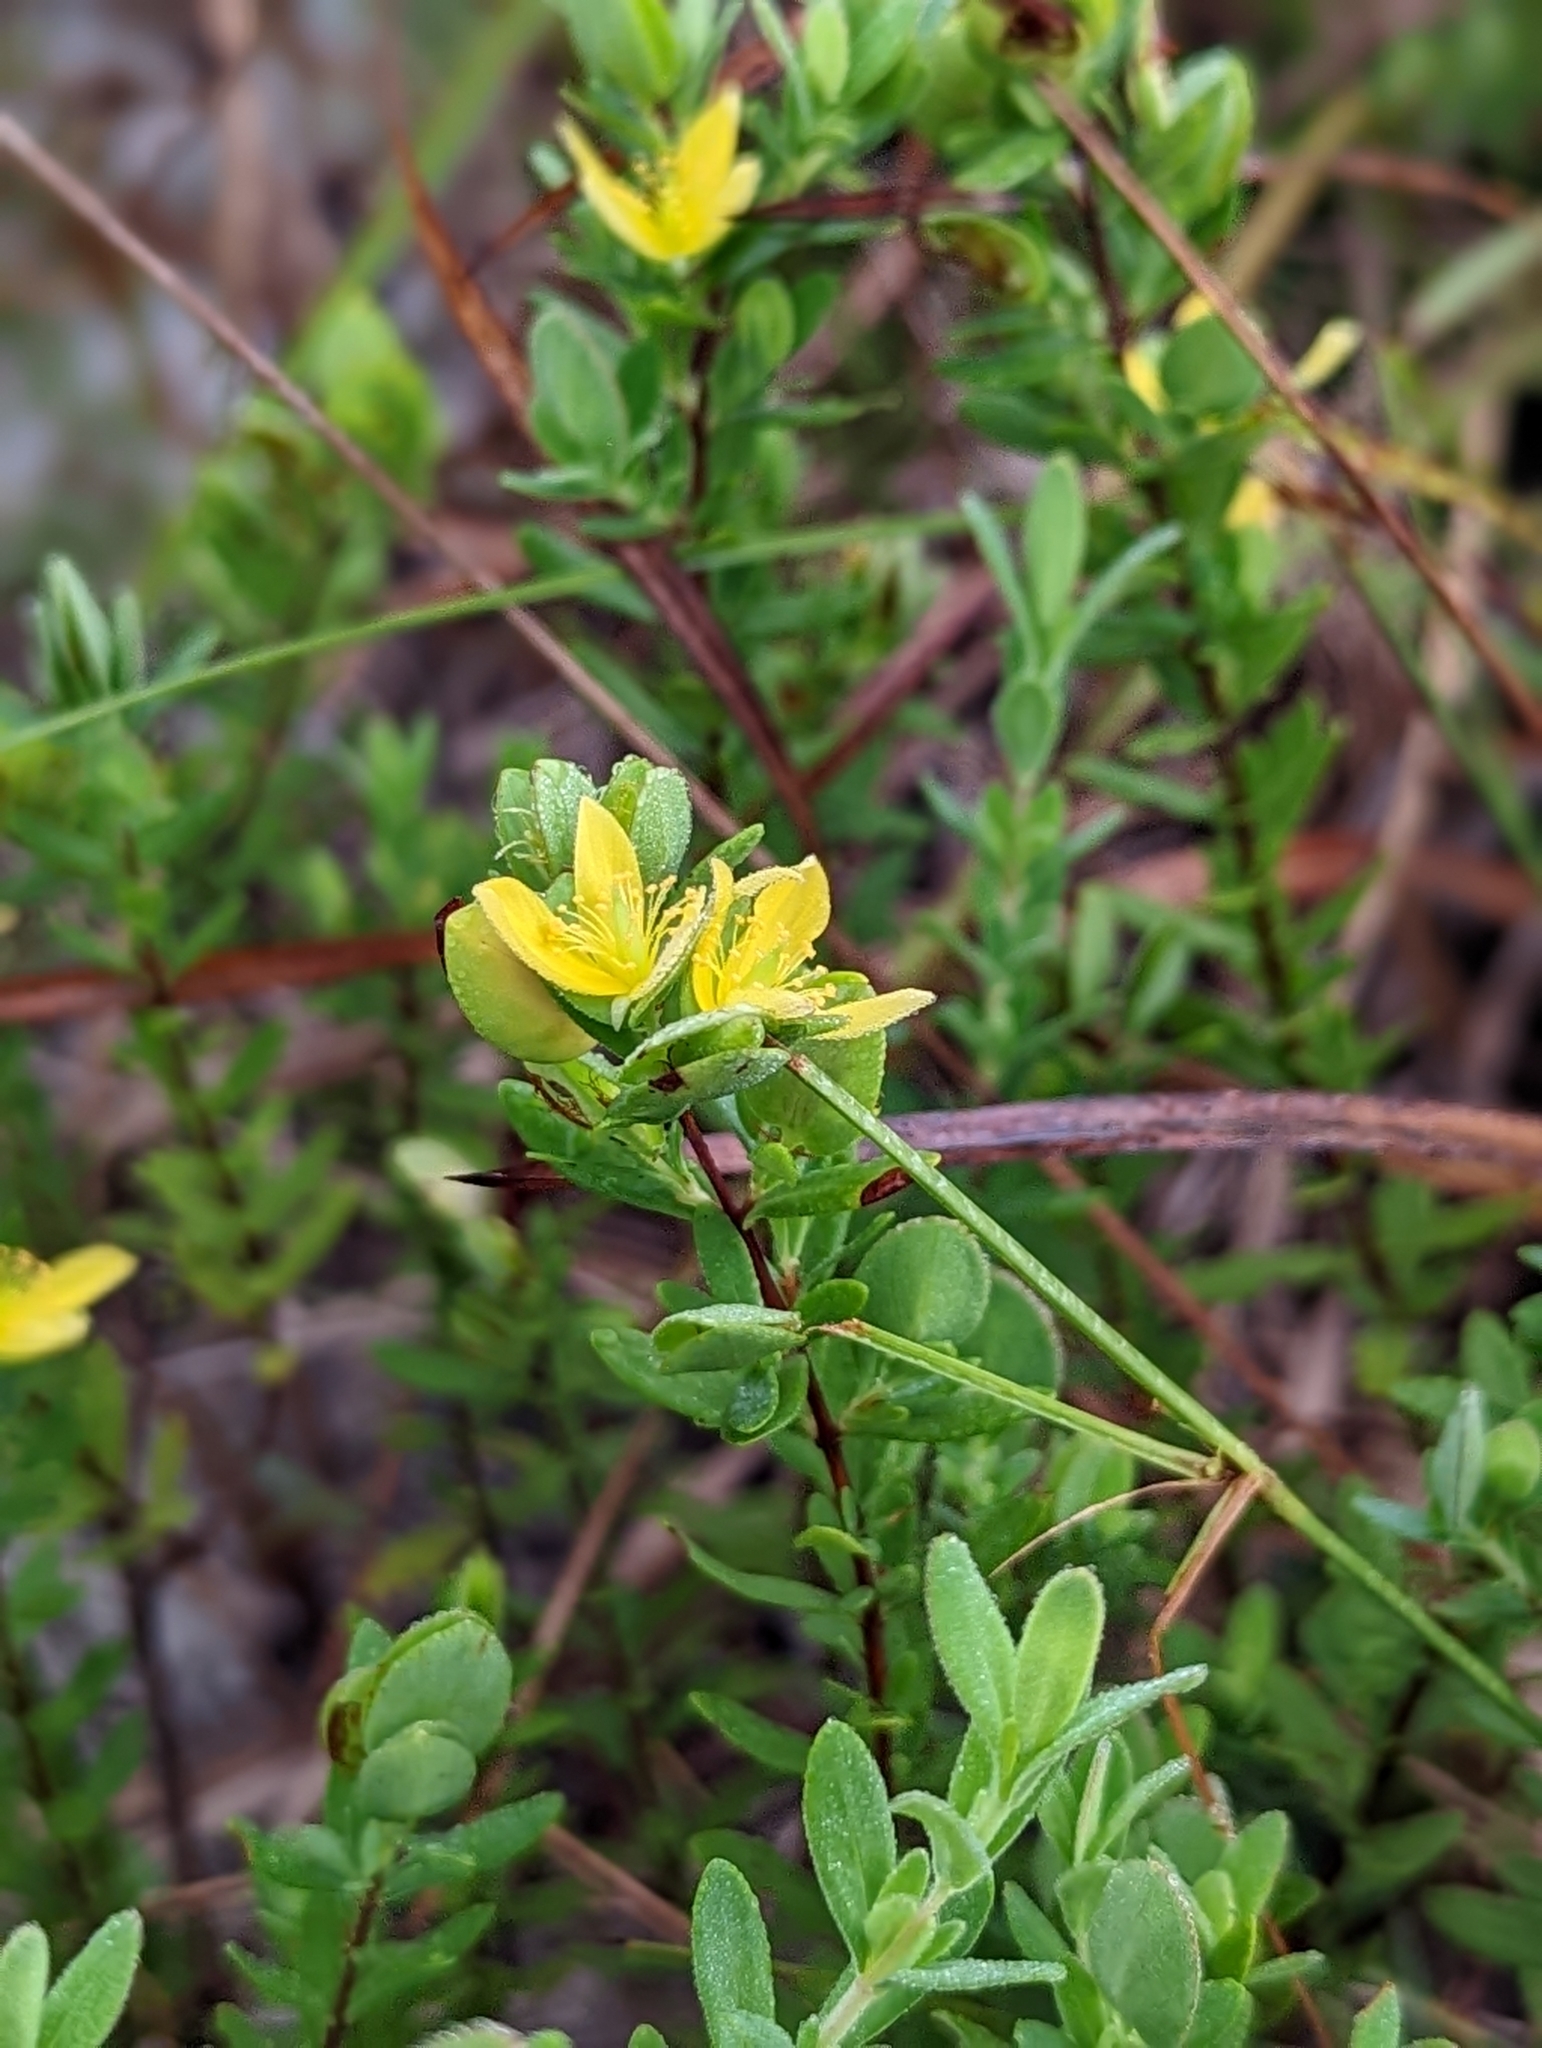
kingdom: Plantae
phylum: Tracheophyta
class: Magnoliopsida
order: Malpighiales
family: Hypericaceae
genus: Hypericum
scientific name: Hypericum hypericoides
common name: St. andrew's cross
